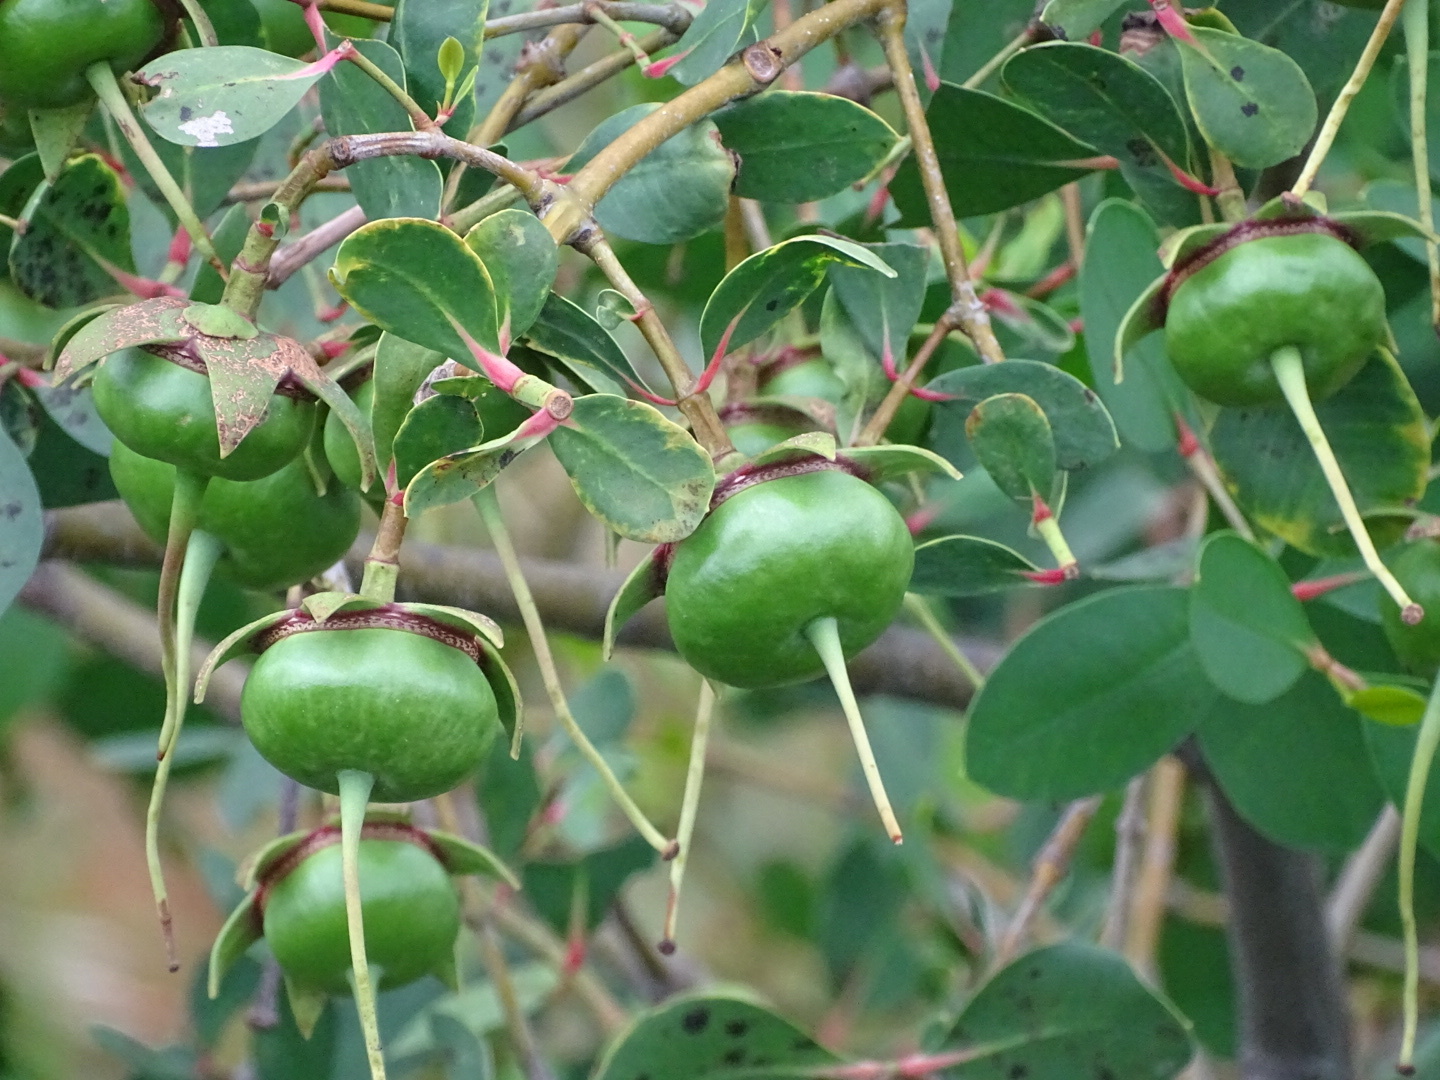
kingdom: Plantae
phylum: Tracheophyta
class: Magnoliopsida
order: Myrtales
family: Lythraceae
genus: Sonneratia
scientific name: Sonneratia caseolaris
